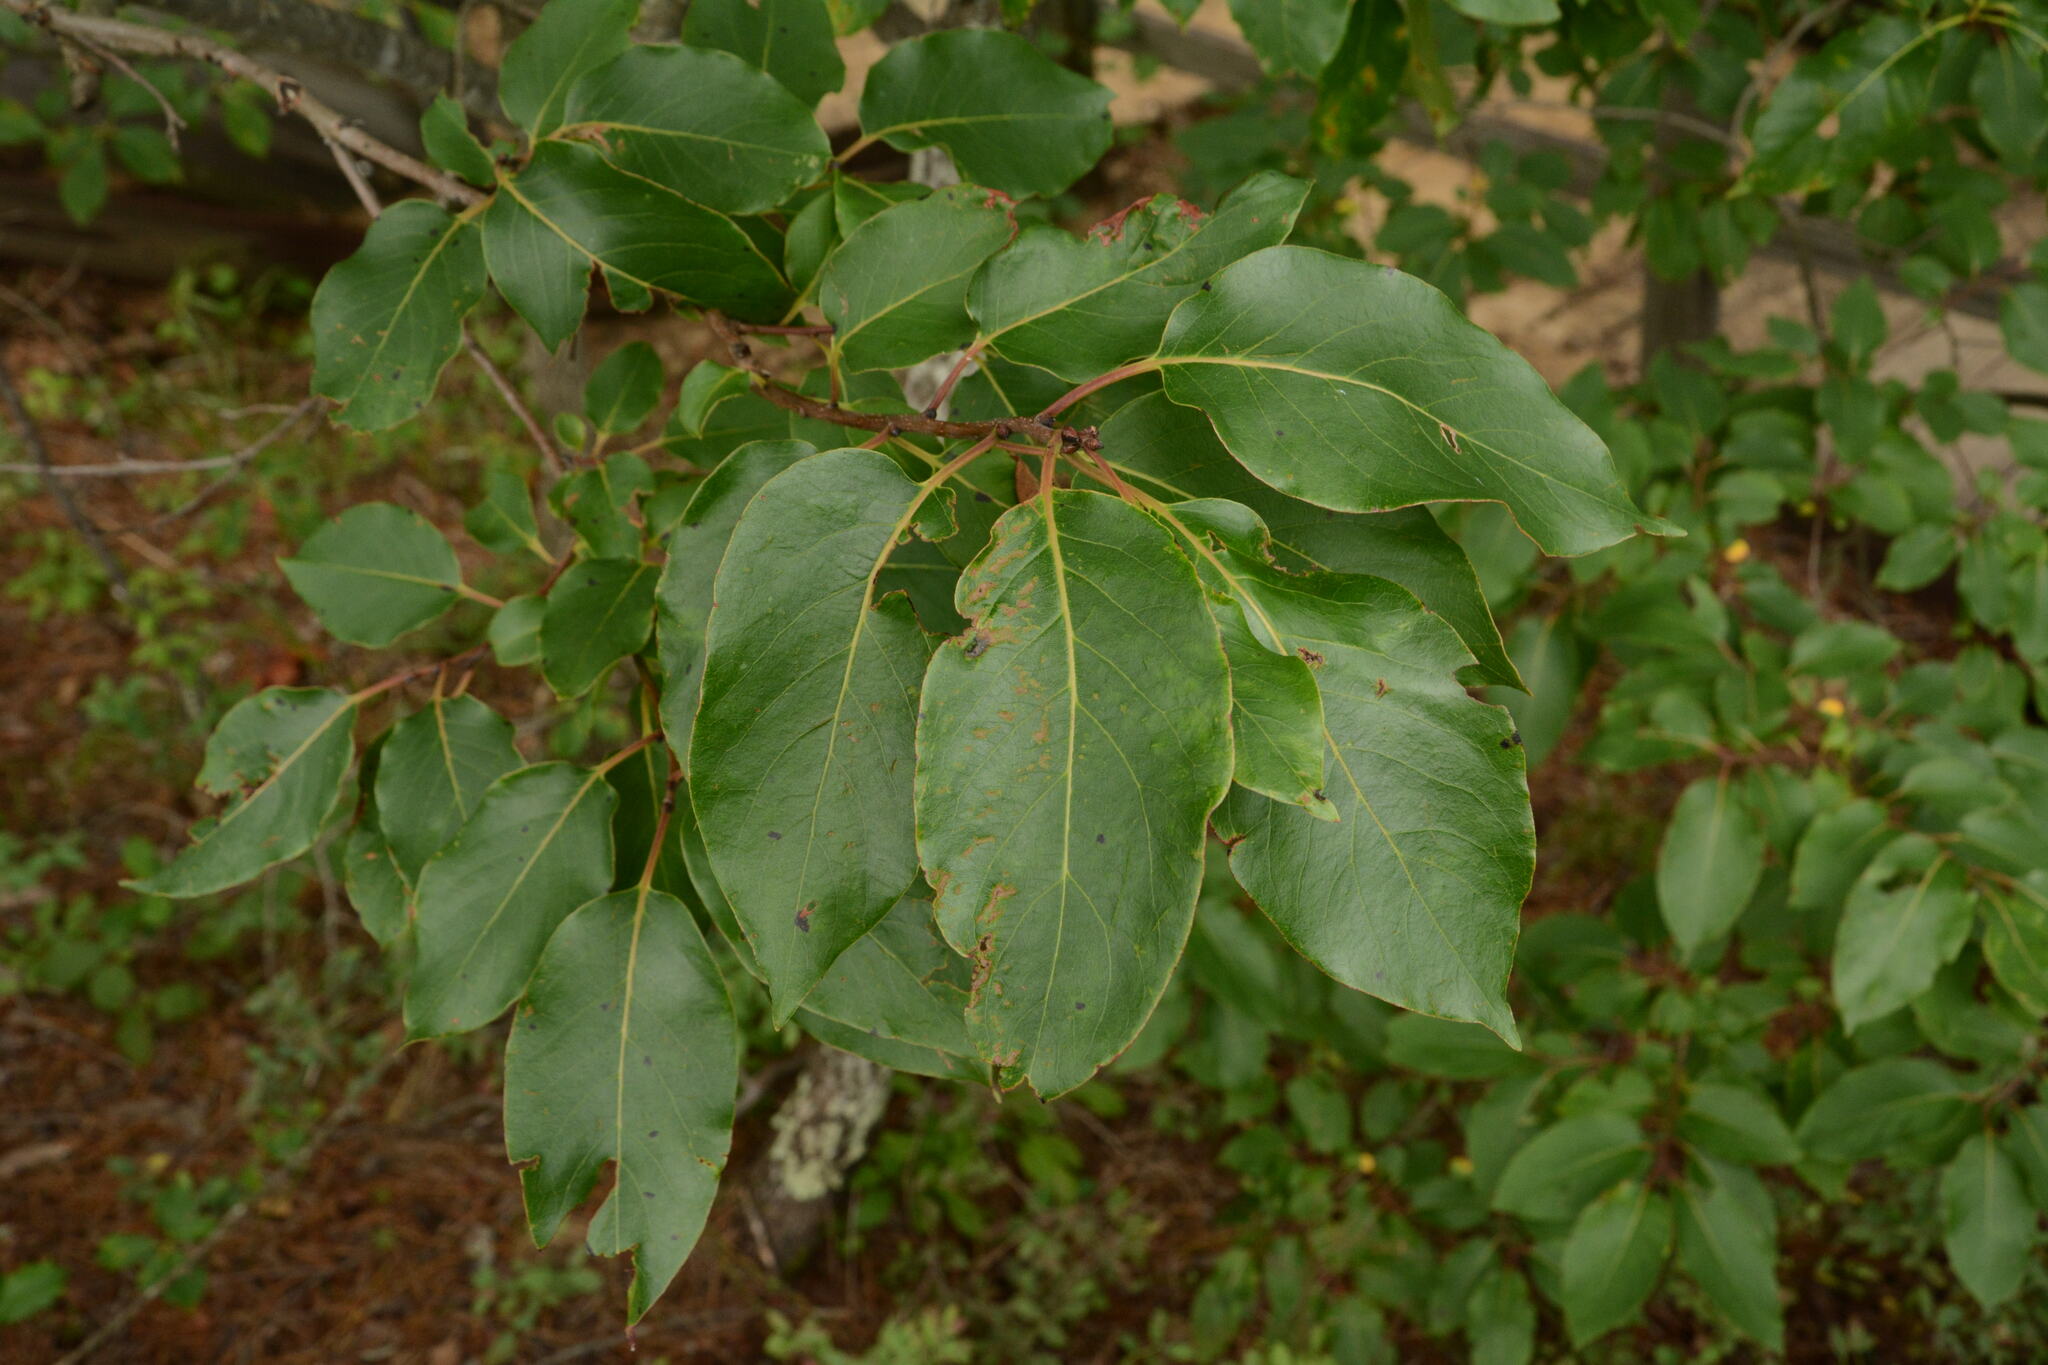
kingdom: Plantae
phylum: Tracheophyta
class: Magnoliopsida
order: Ericales
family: Ebenaceae
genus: Diospyros
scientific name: Diospyros virginiana
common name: Persimmon
